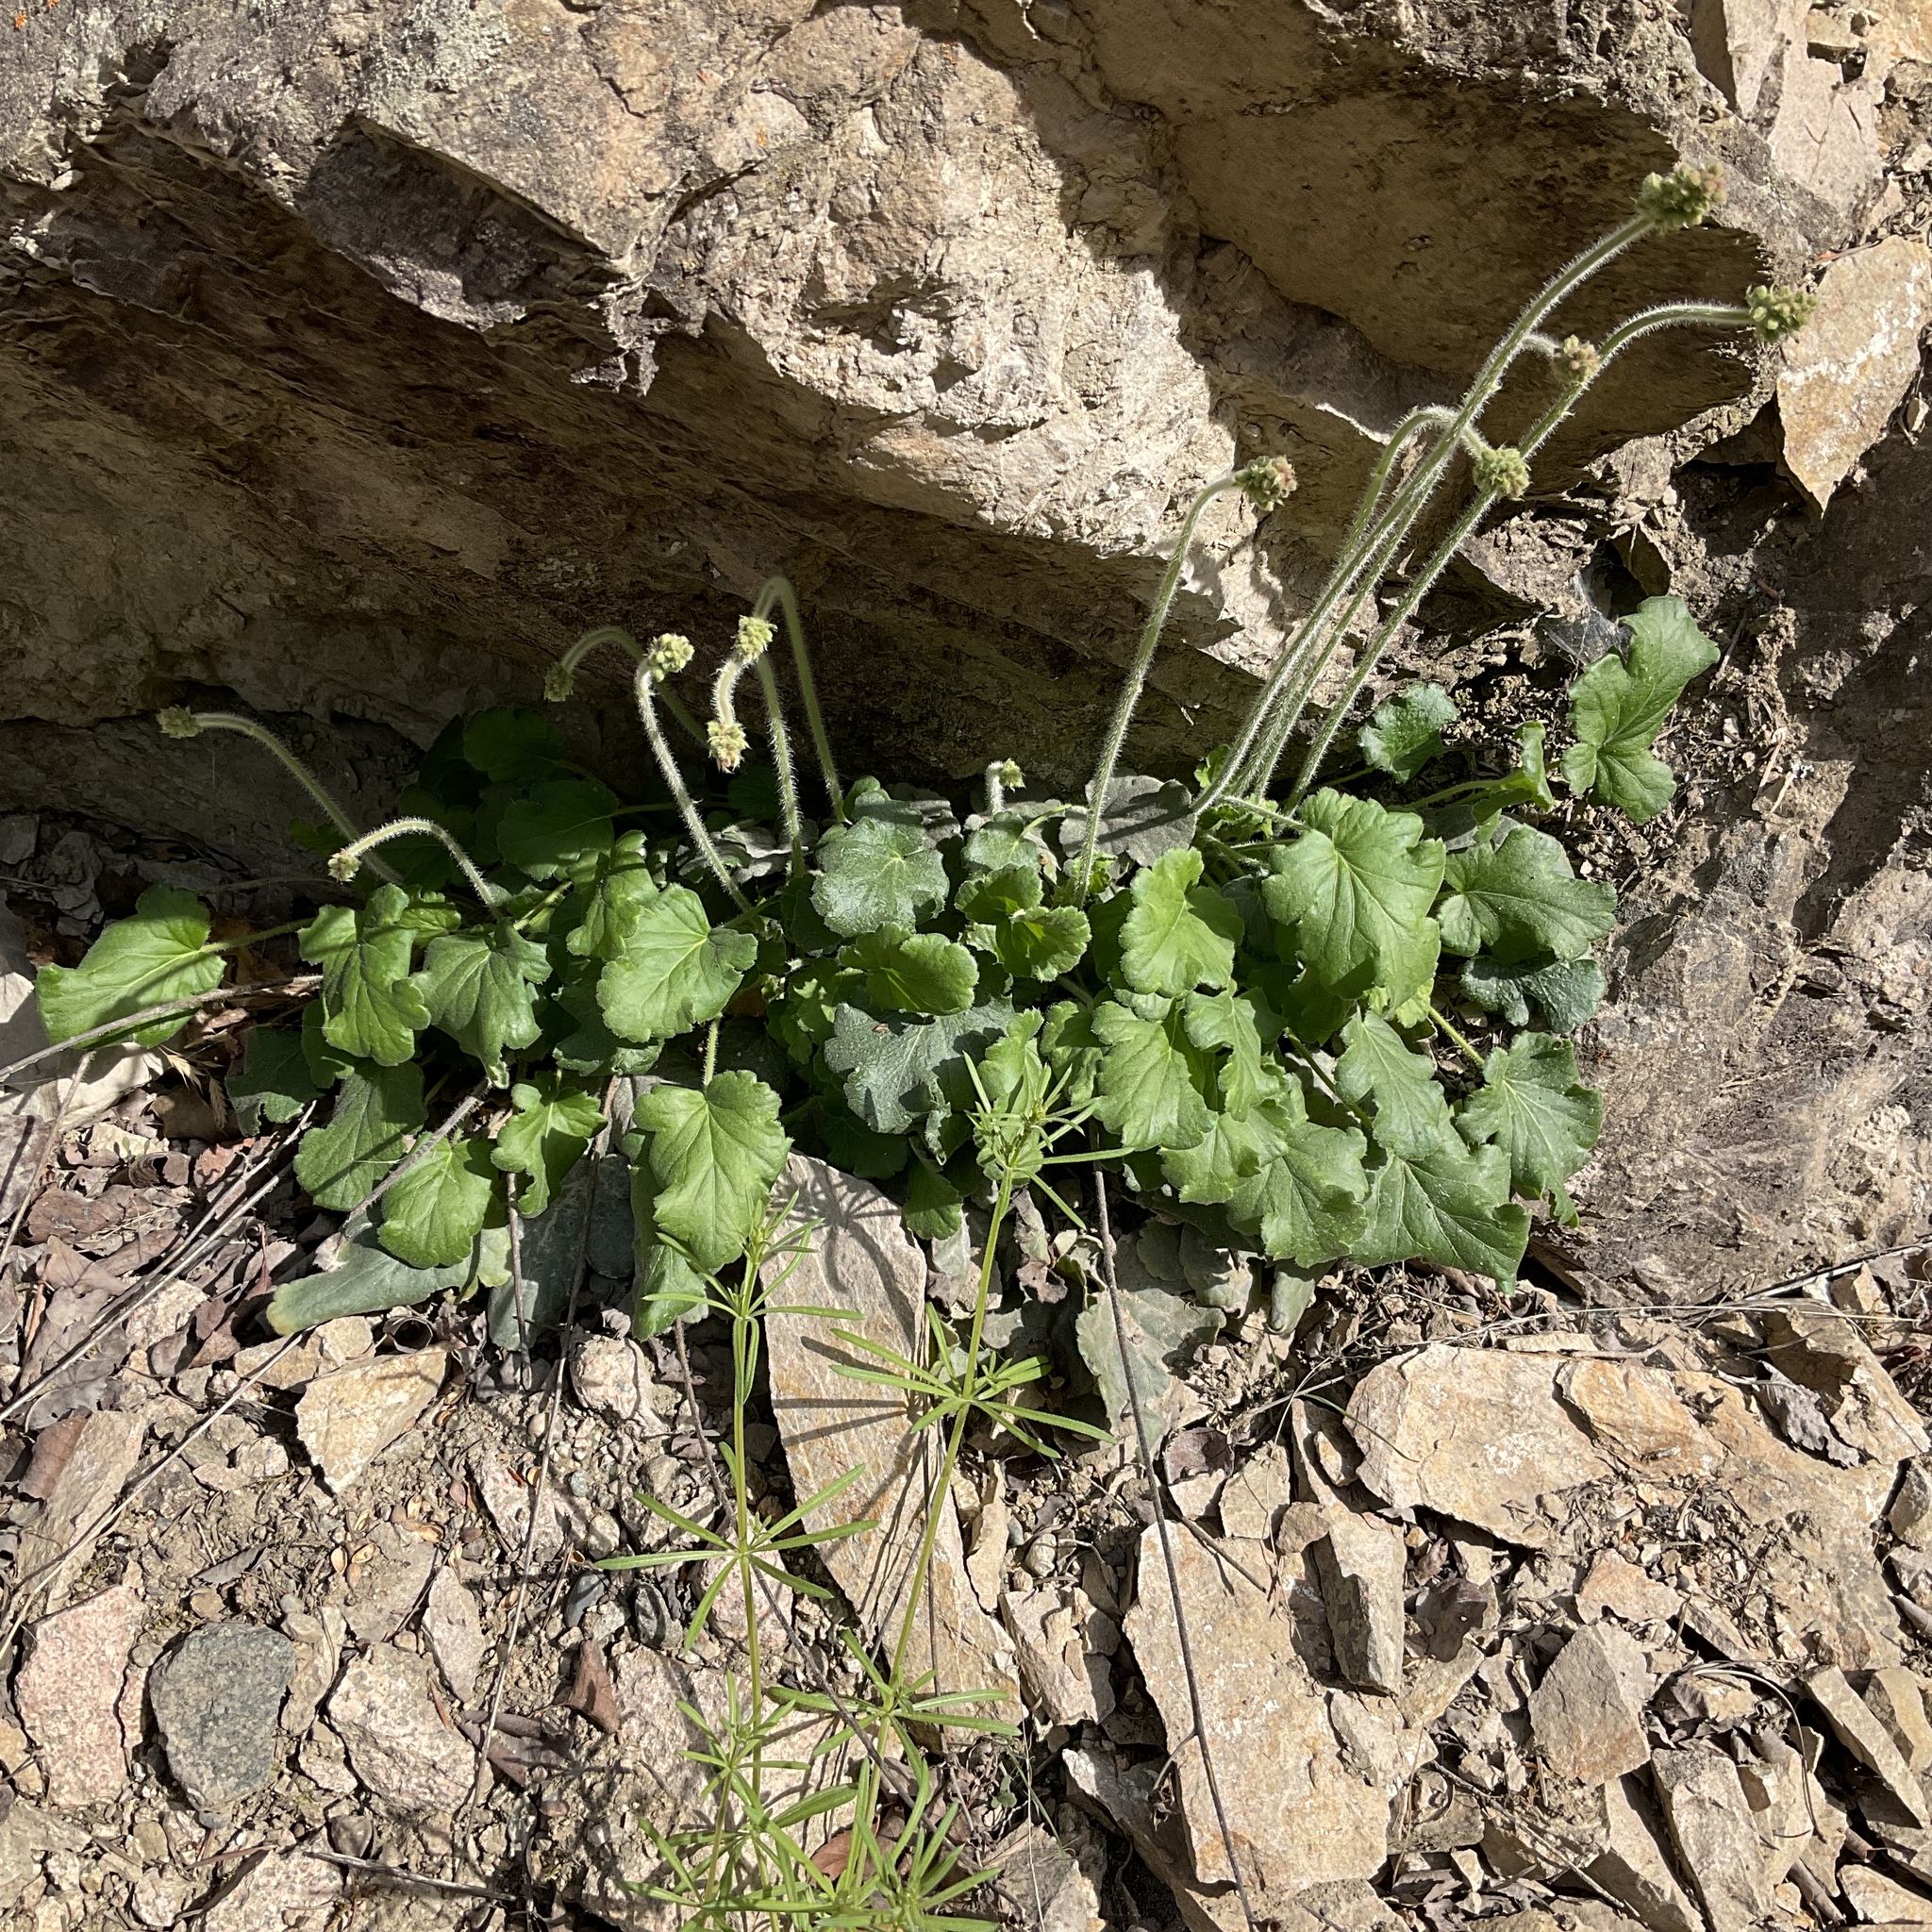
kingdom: Plantae
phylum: Tracheophyta
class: Magnoliopsida
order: Saxifragales
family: Saxifragaceae
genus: Heuchera
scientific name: Heuchera cylindrica
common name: Mat alumroot
